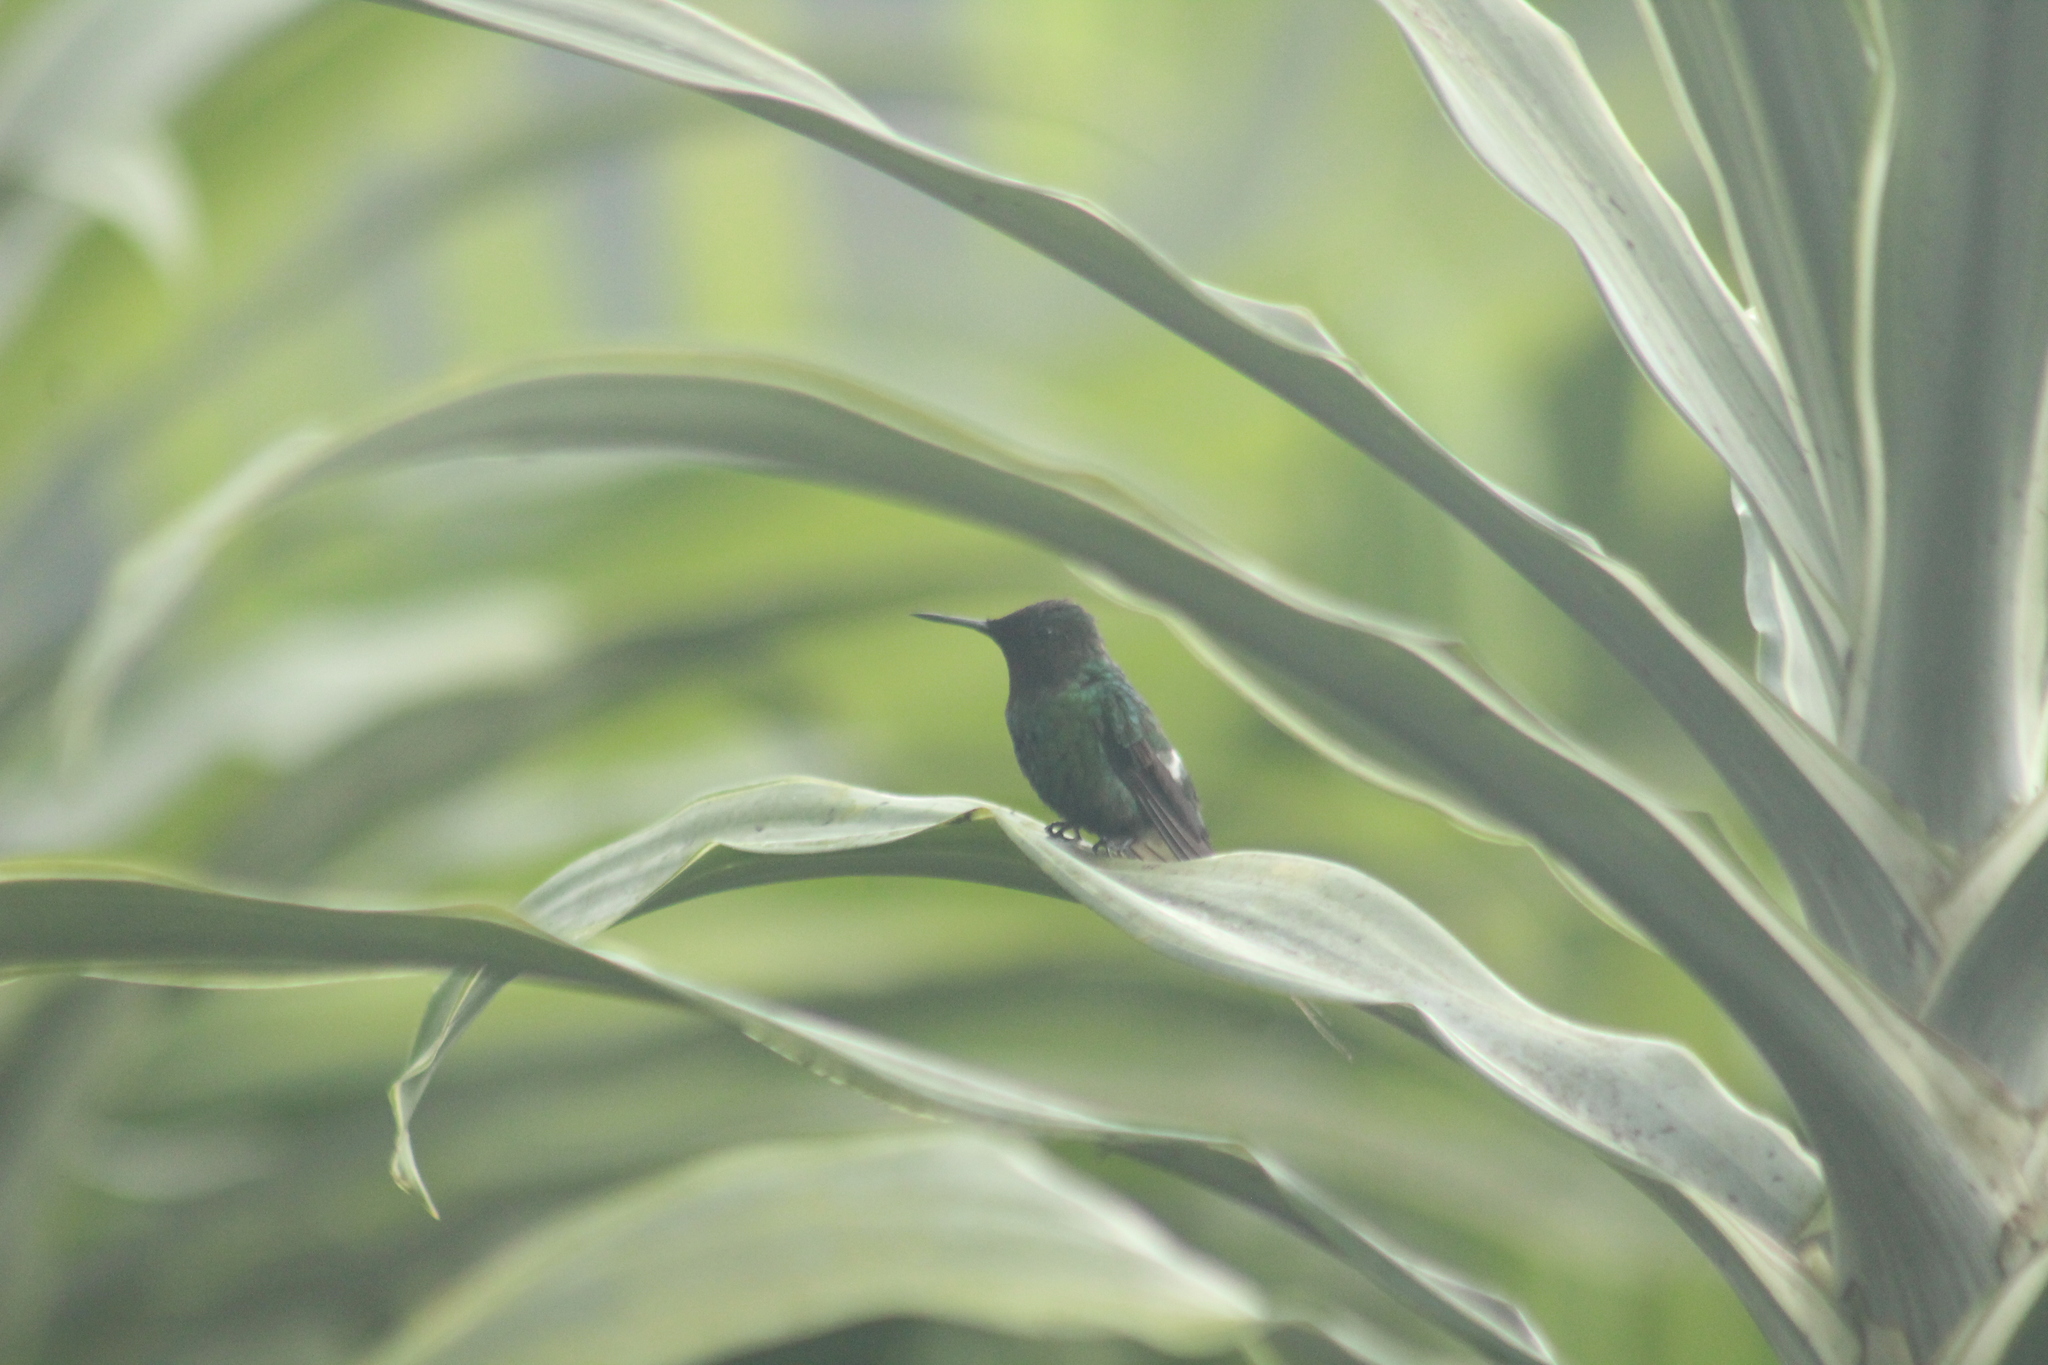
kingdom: Animalia
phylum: Chordata
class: Aves
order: Apodiformes
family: Trochilidae
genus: Discosura
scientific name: Discosura conversii
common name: Green thorntail
